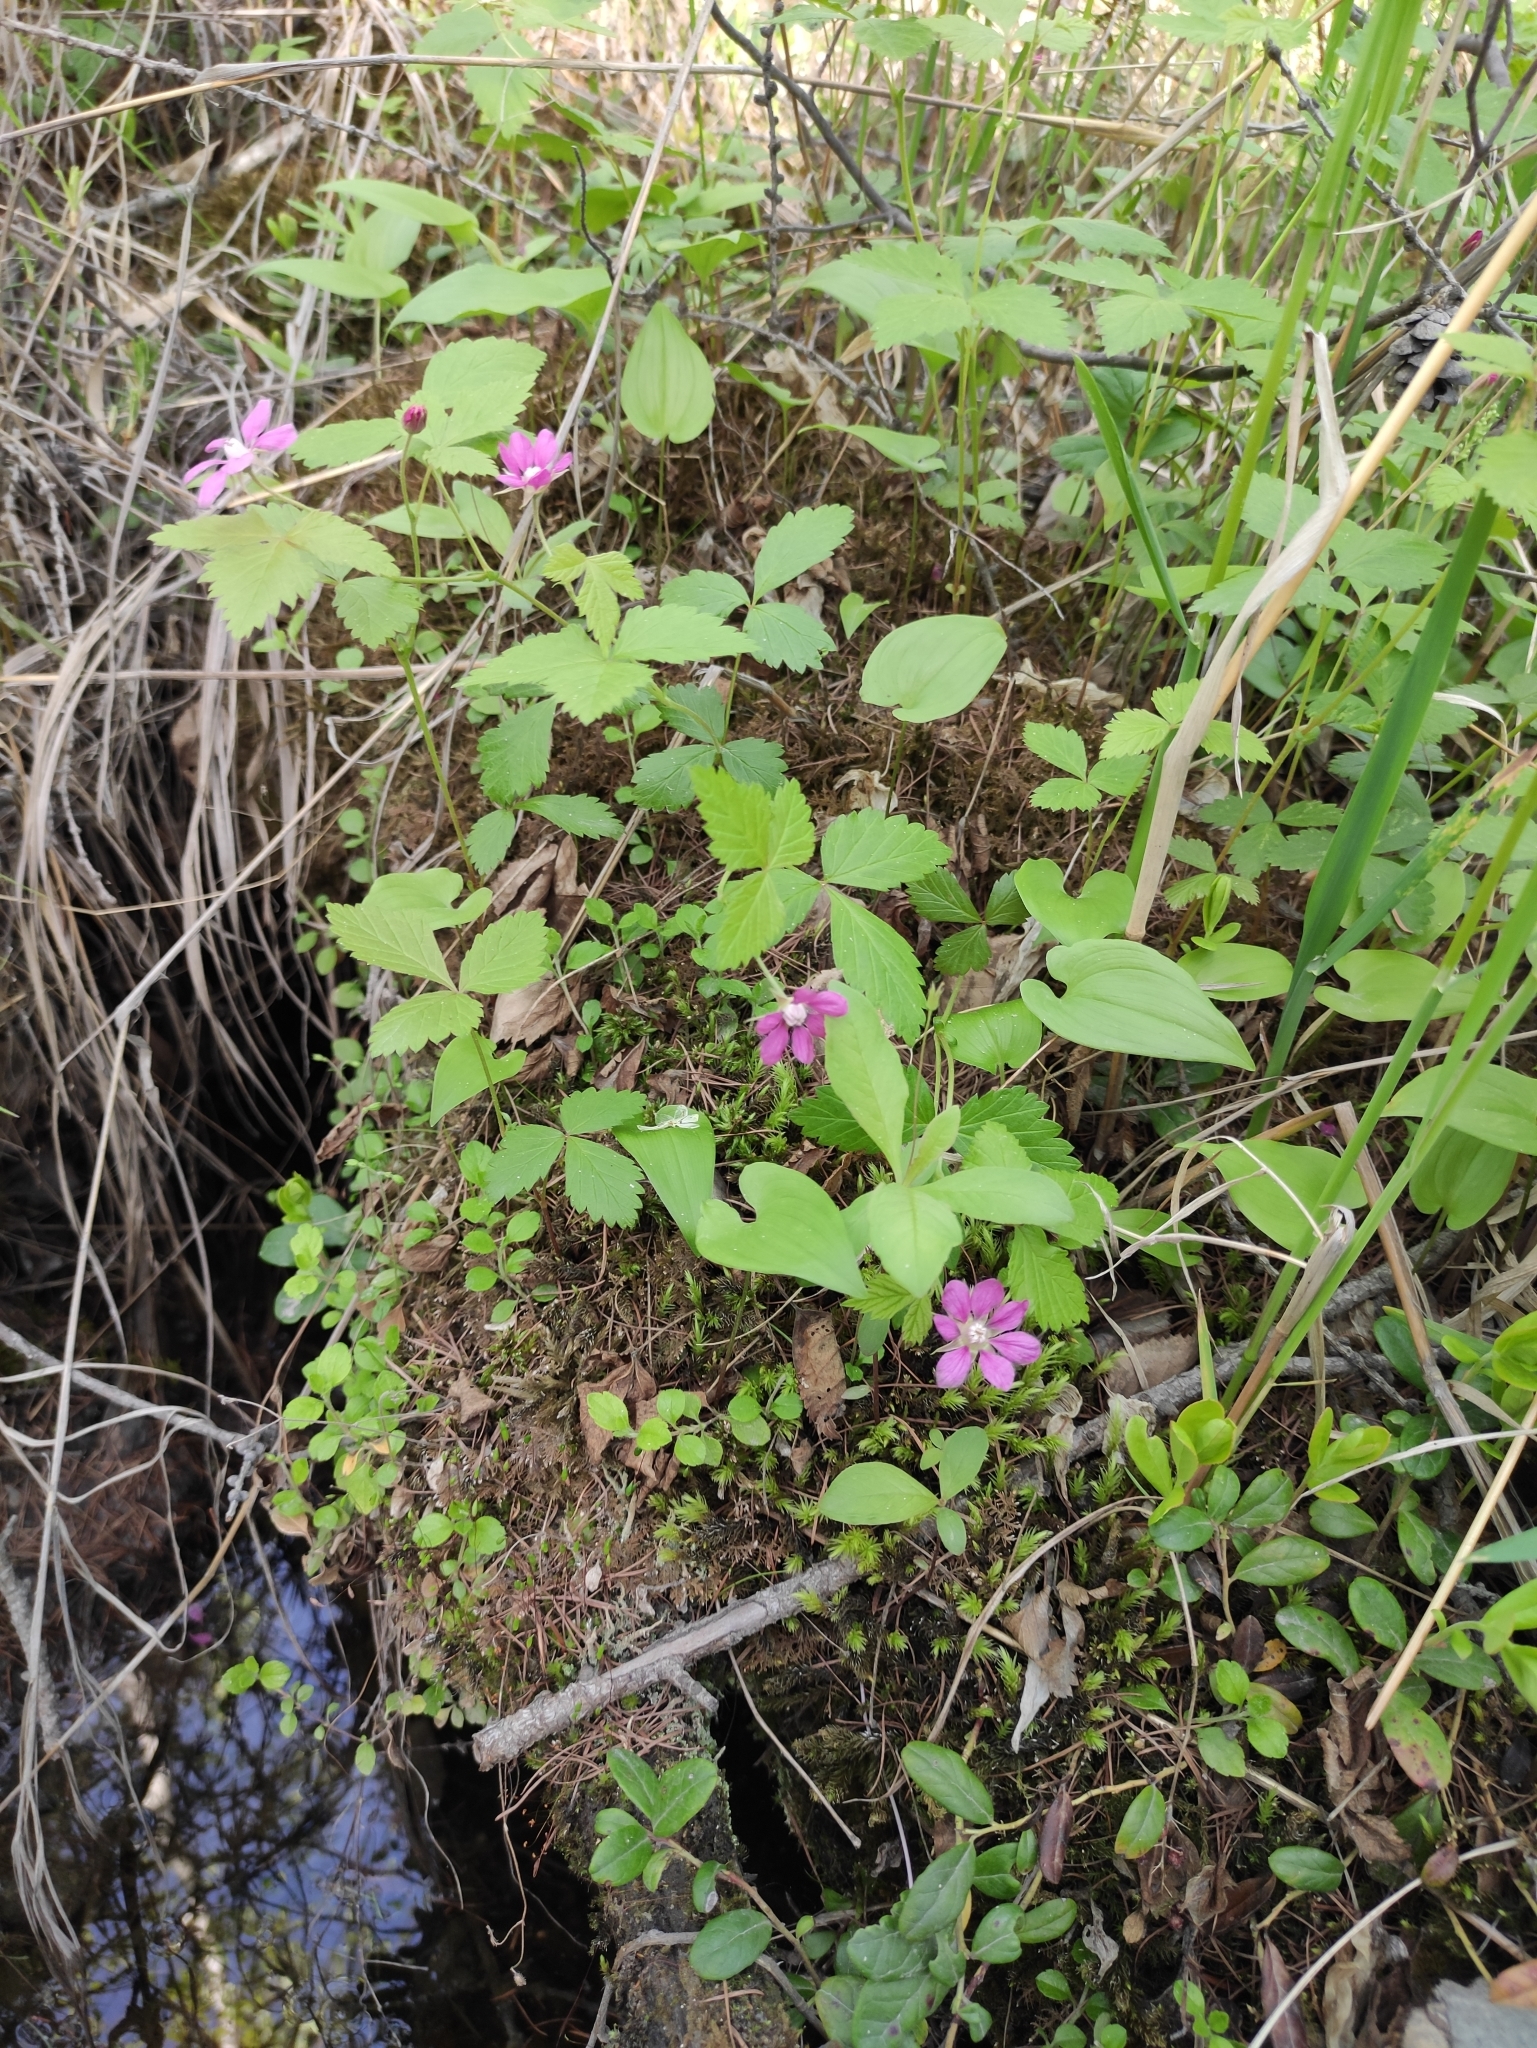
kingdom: Plantae
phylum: Tracheophyta
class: Magnoliopsida
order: Rosales
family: Rosaceae
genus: Rubus
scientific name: Rubus arcticus
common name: Arctic bramble
